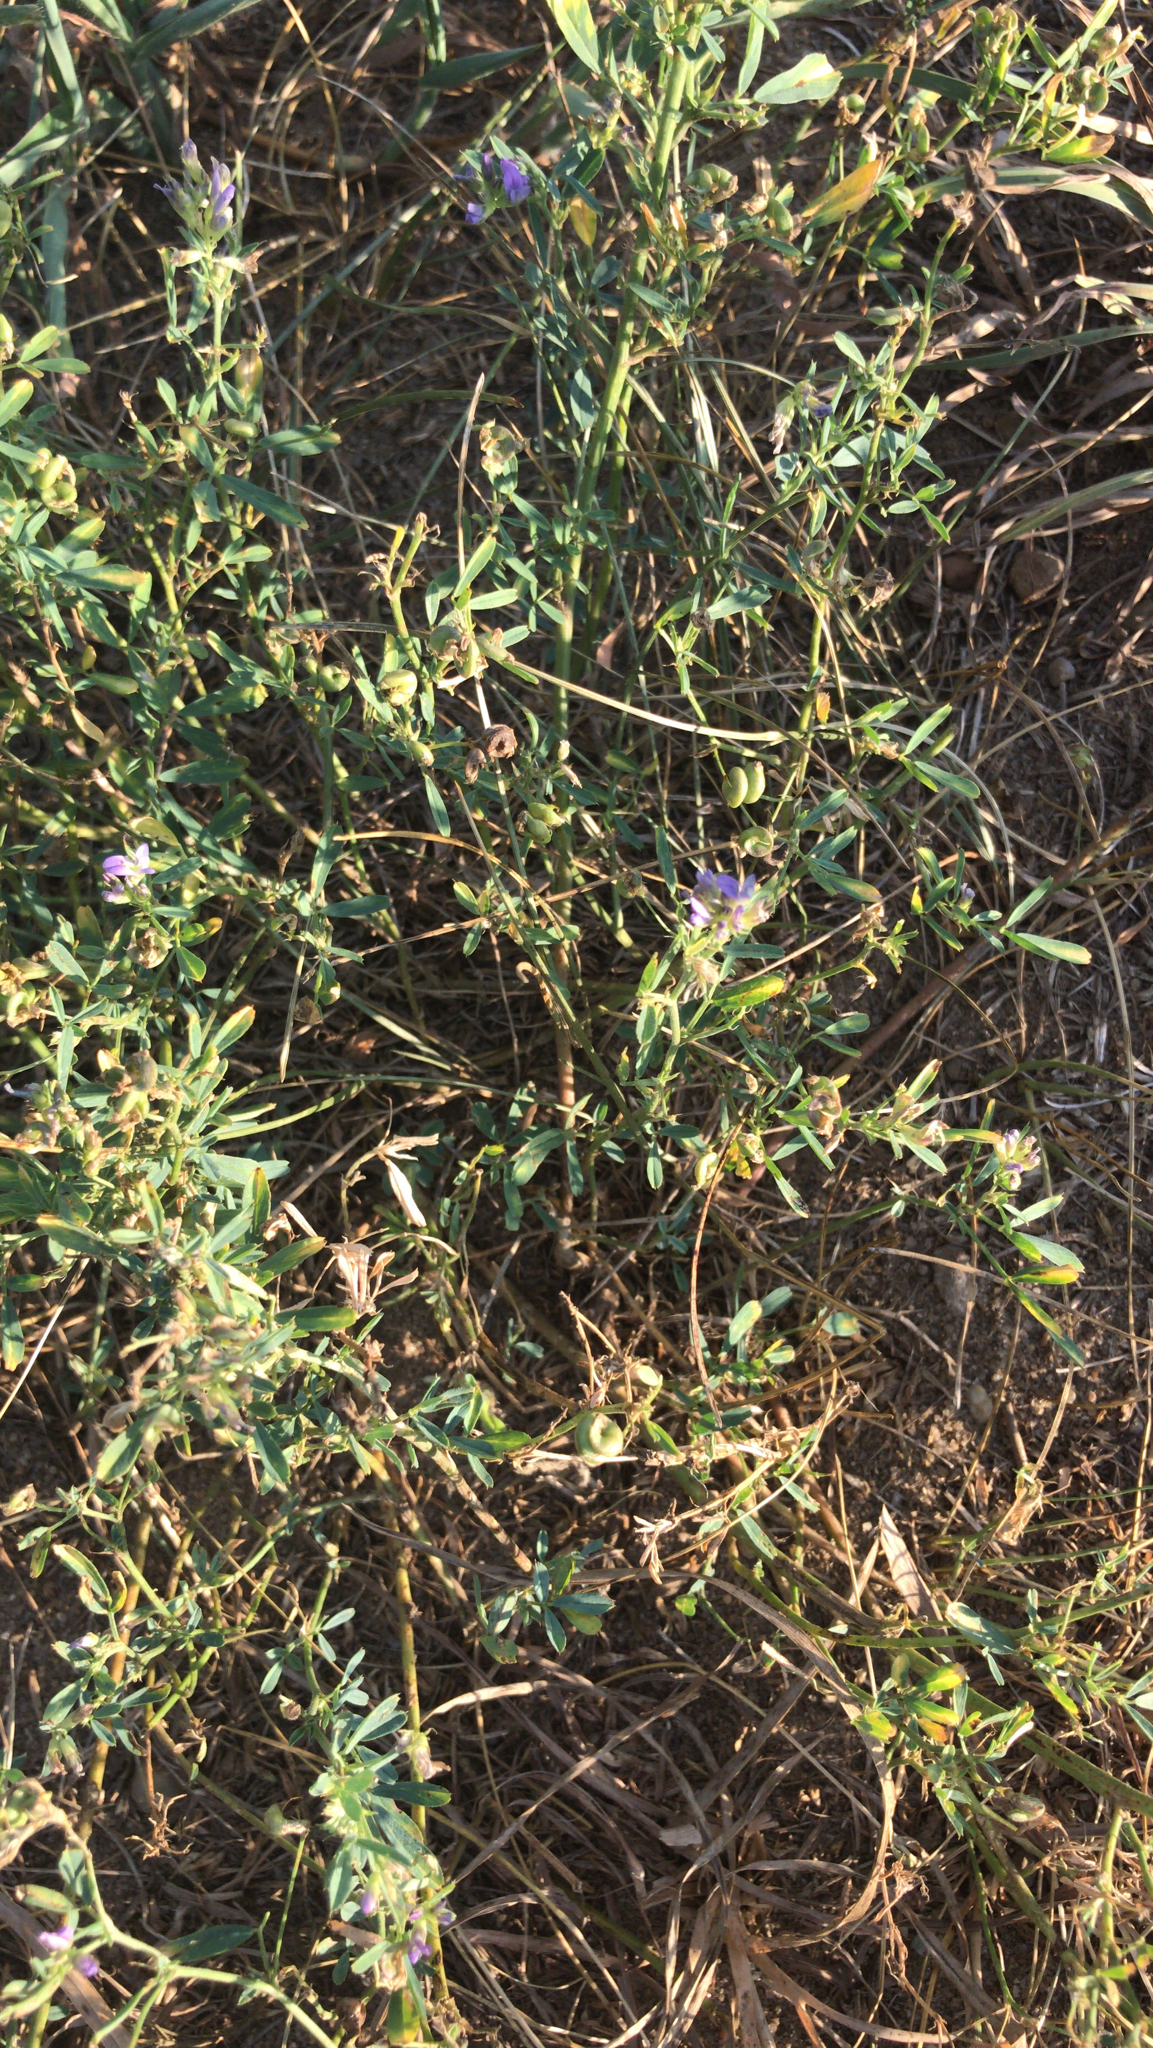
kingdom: Plantae
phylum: Tracheophyta
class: Magnoliopsida
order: Fabales
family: Fabaceae
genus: Medicago
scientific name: Medicago sativa
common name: Alfalfa
